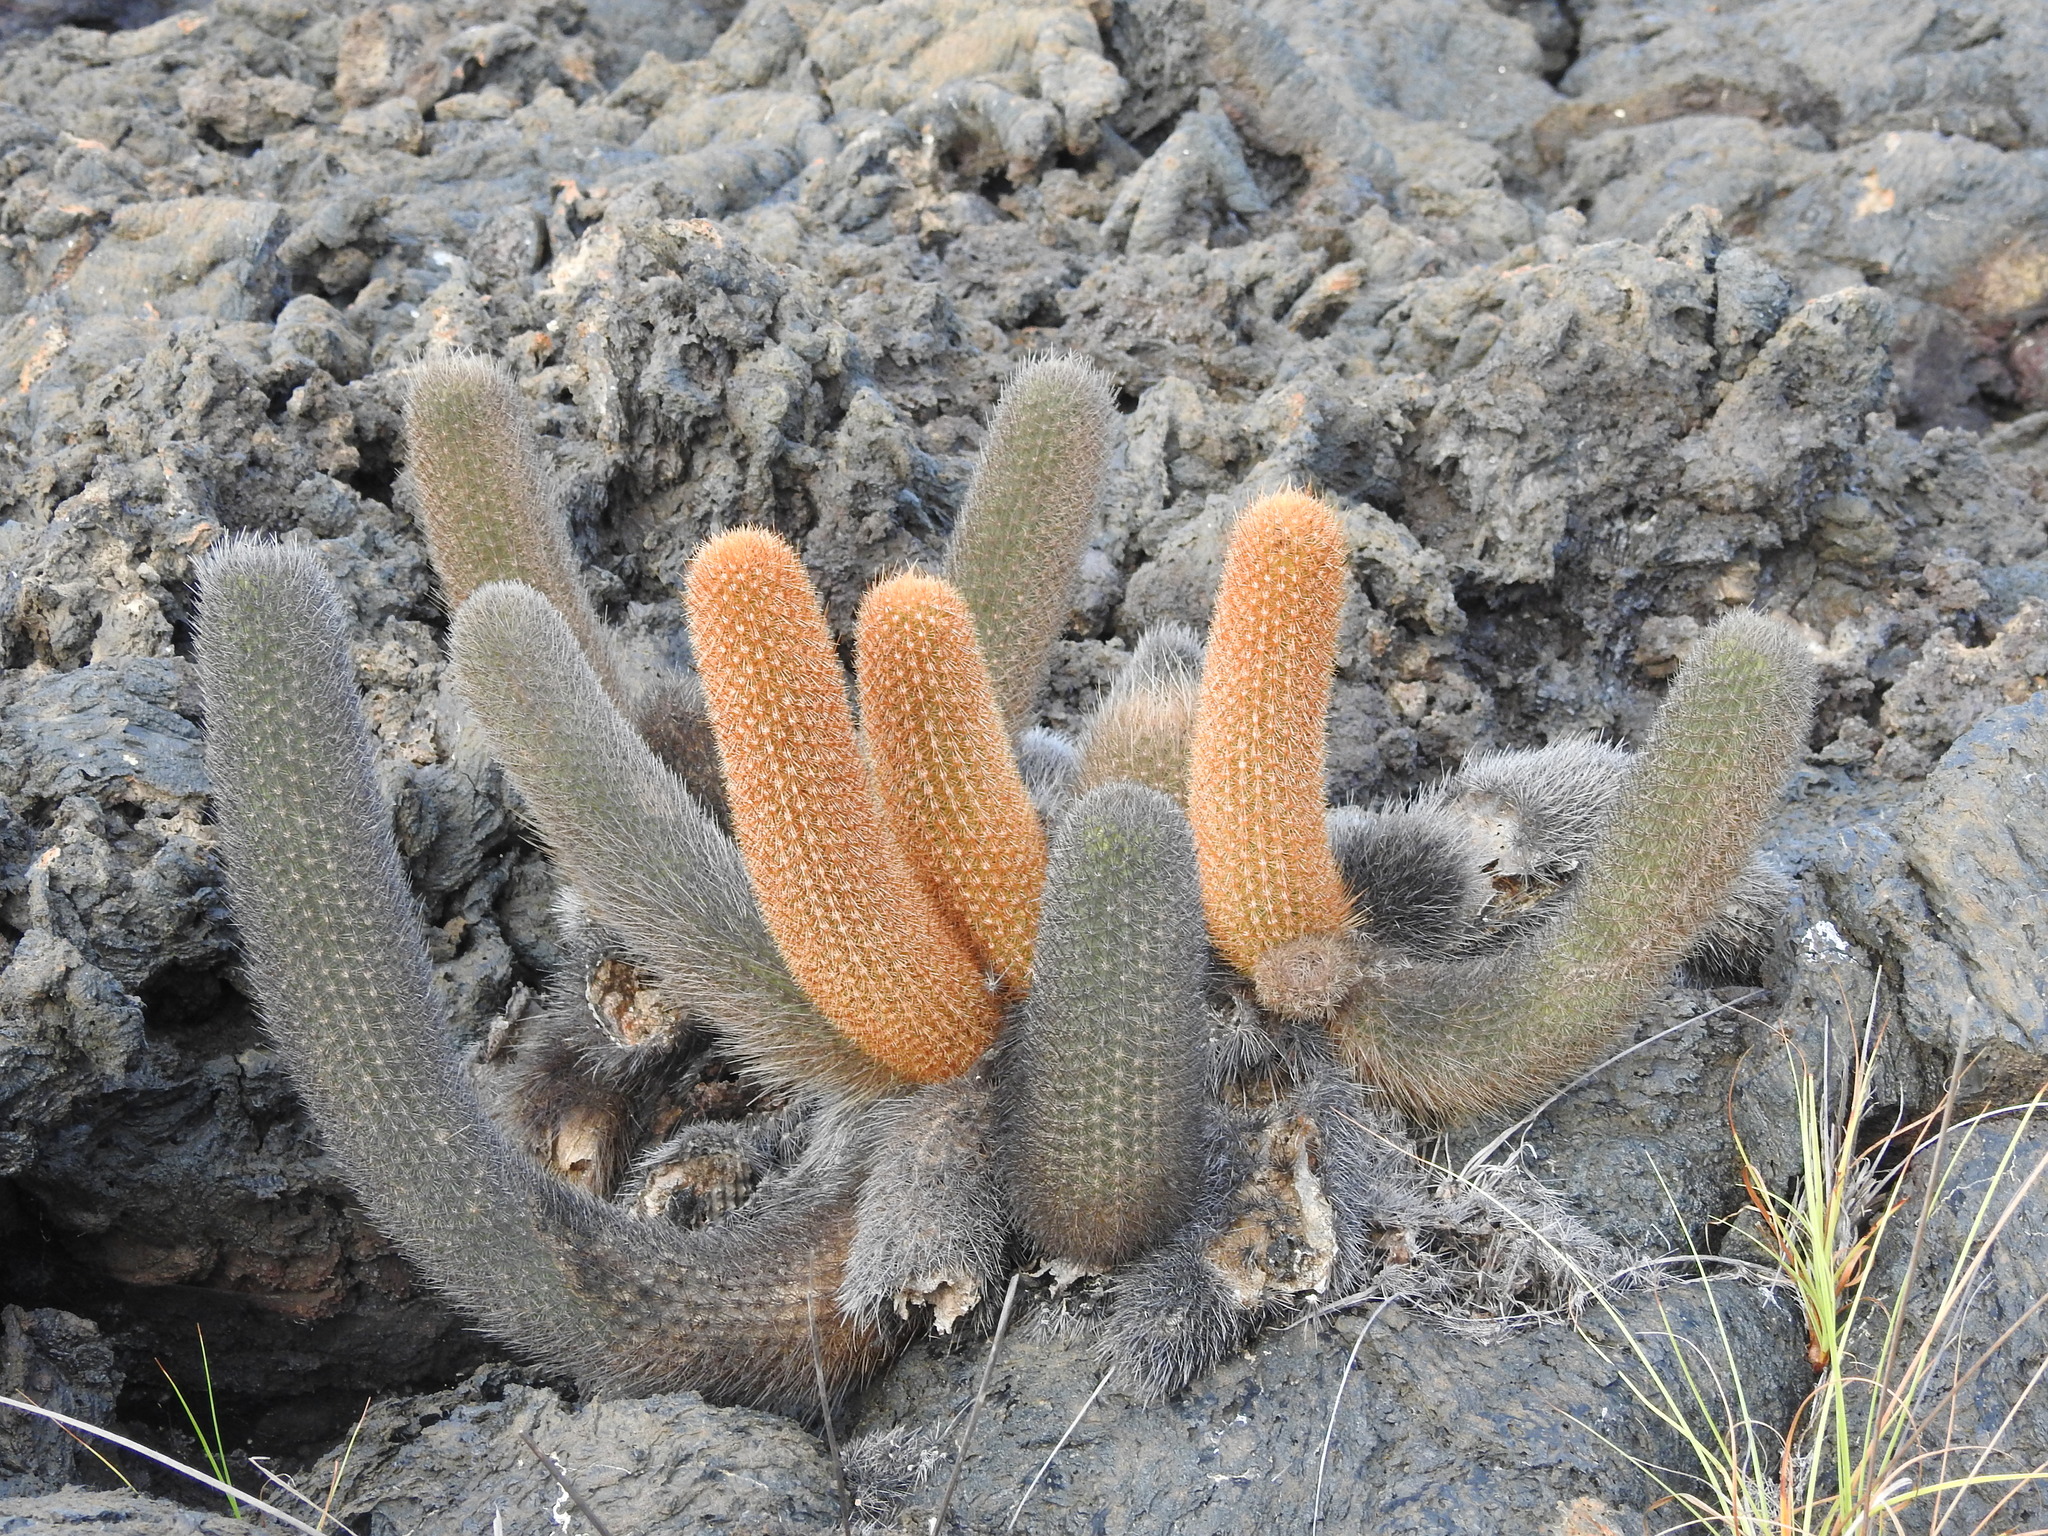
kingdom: Plantae
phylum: Tracheophyta
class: Magnoliopsida
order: Caryophyllales
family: Cactaceae
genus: Brachycereus
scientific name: Brachycereus nesioticus
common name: Lava cactus
